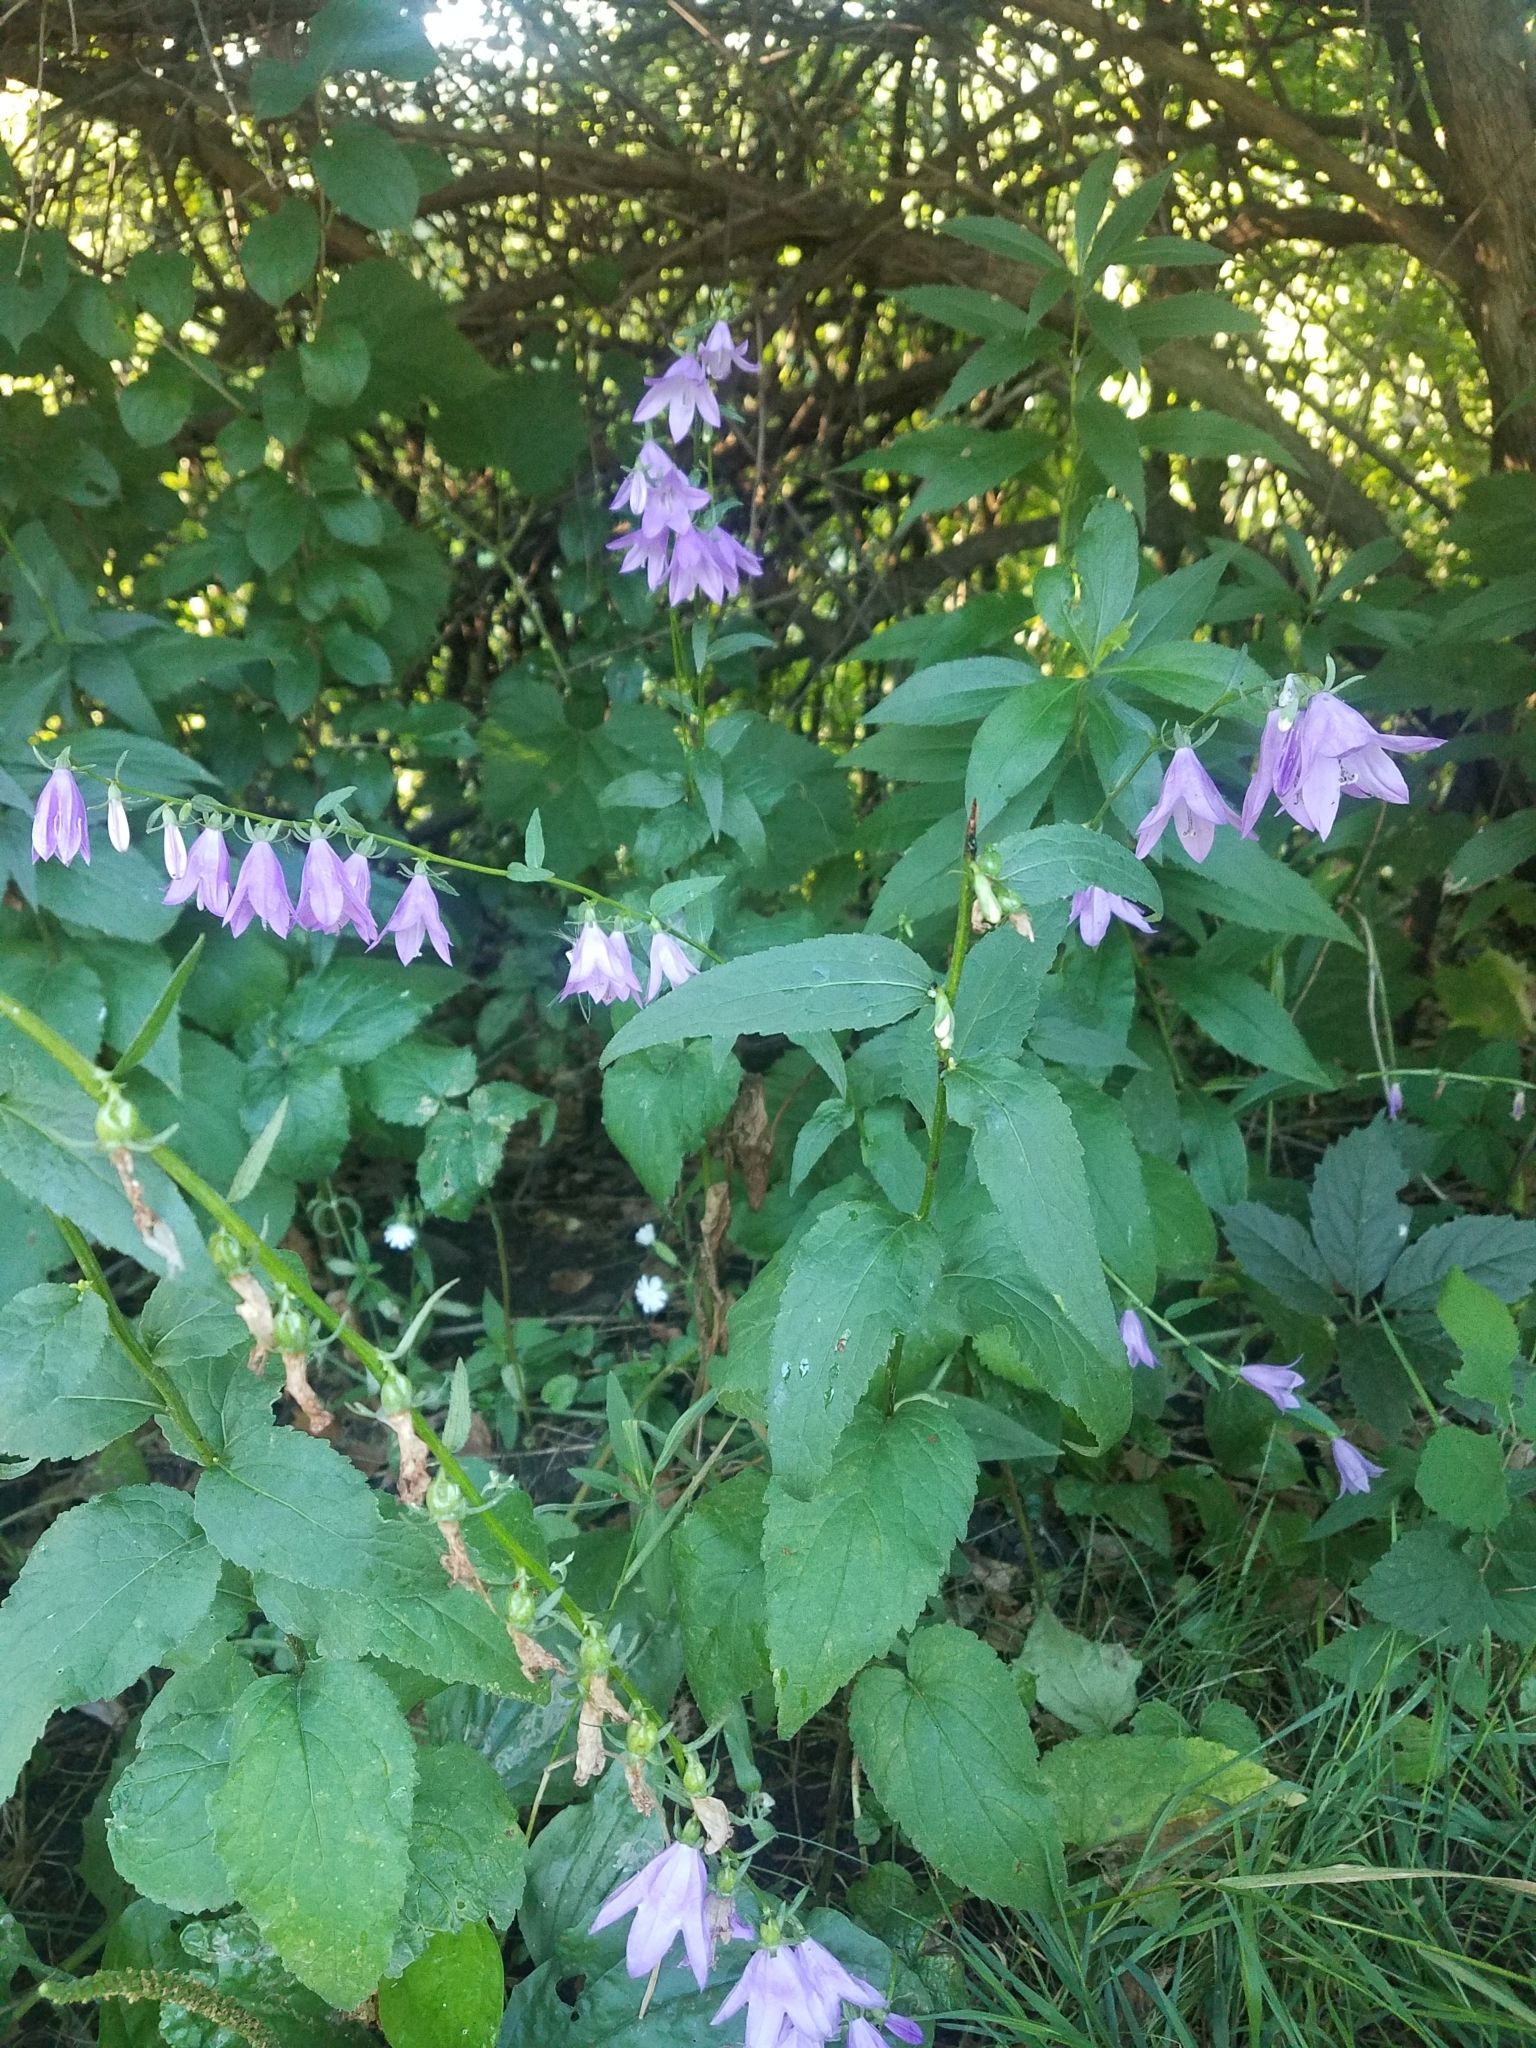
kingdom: Plantae
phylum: Tracheophyta
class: Magnoliopsida
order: Asterales
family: Campanulaceae
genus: Campanula
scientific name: Campanula rapunculoides
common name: Creeping bellflower
